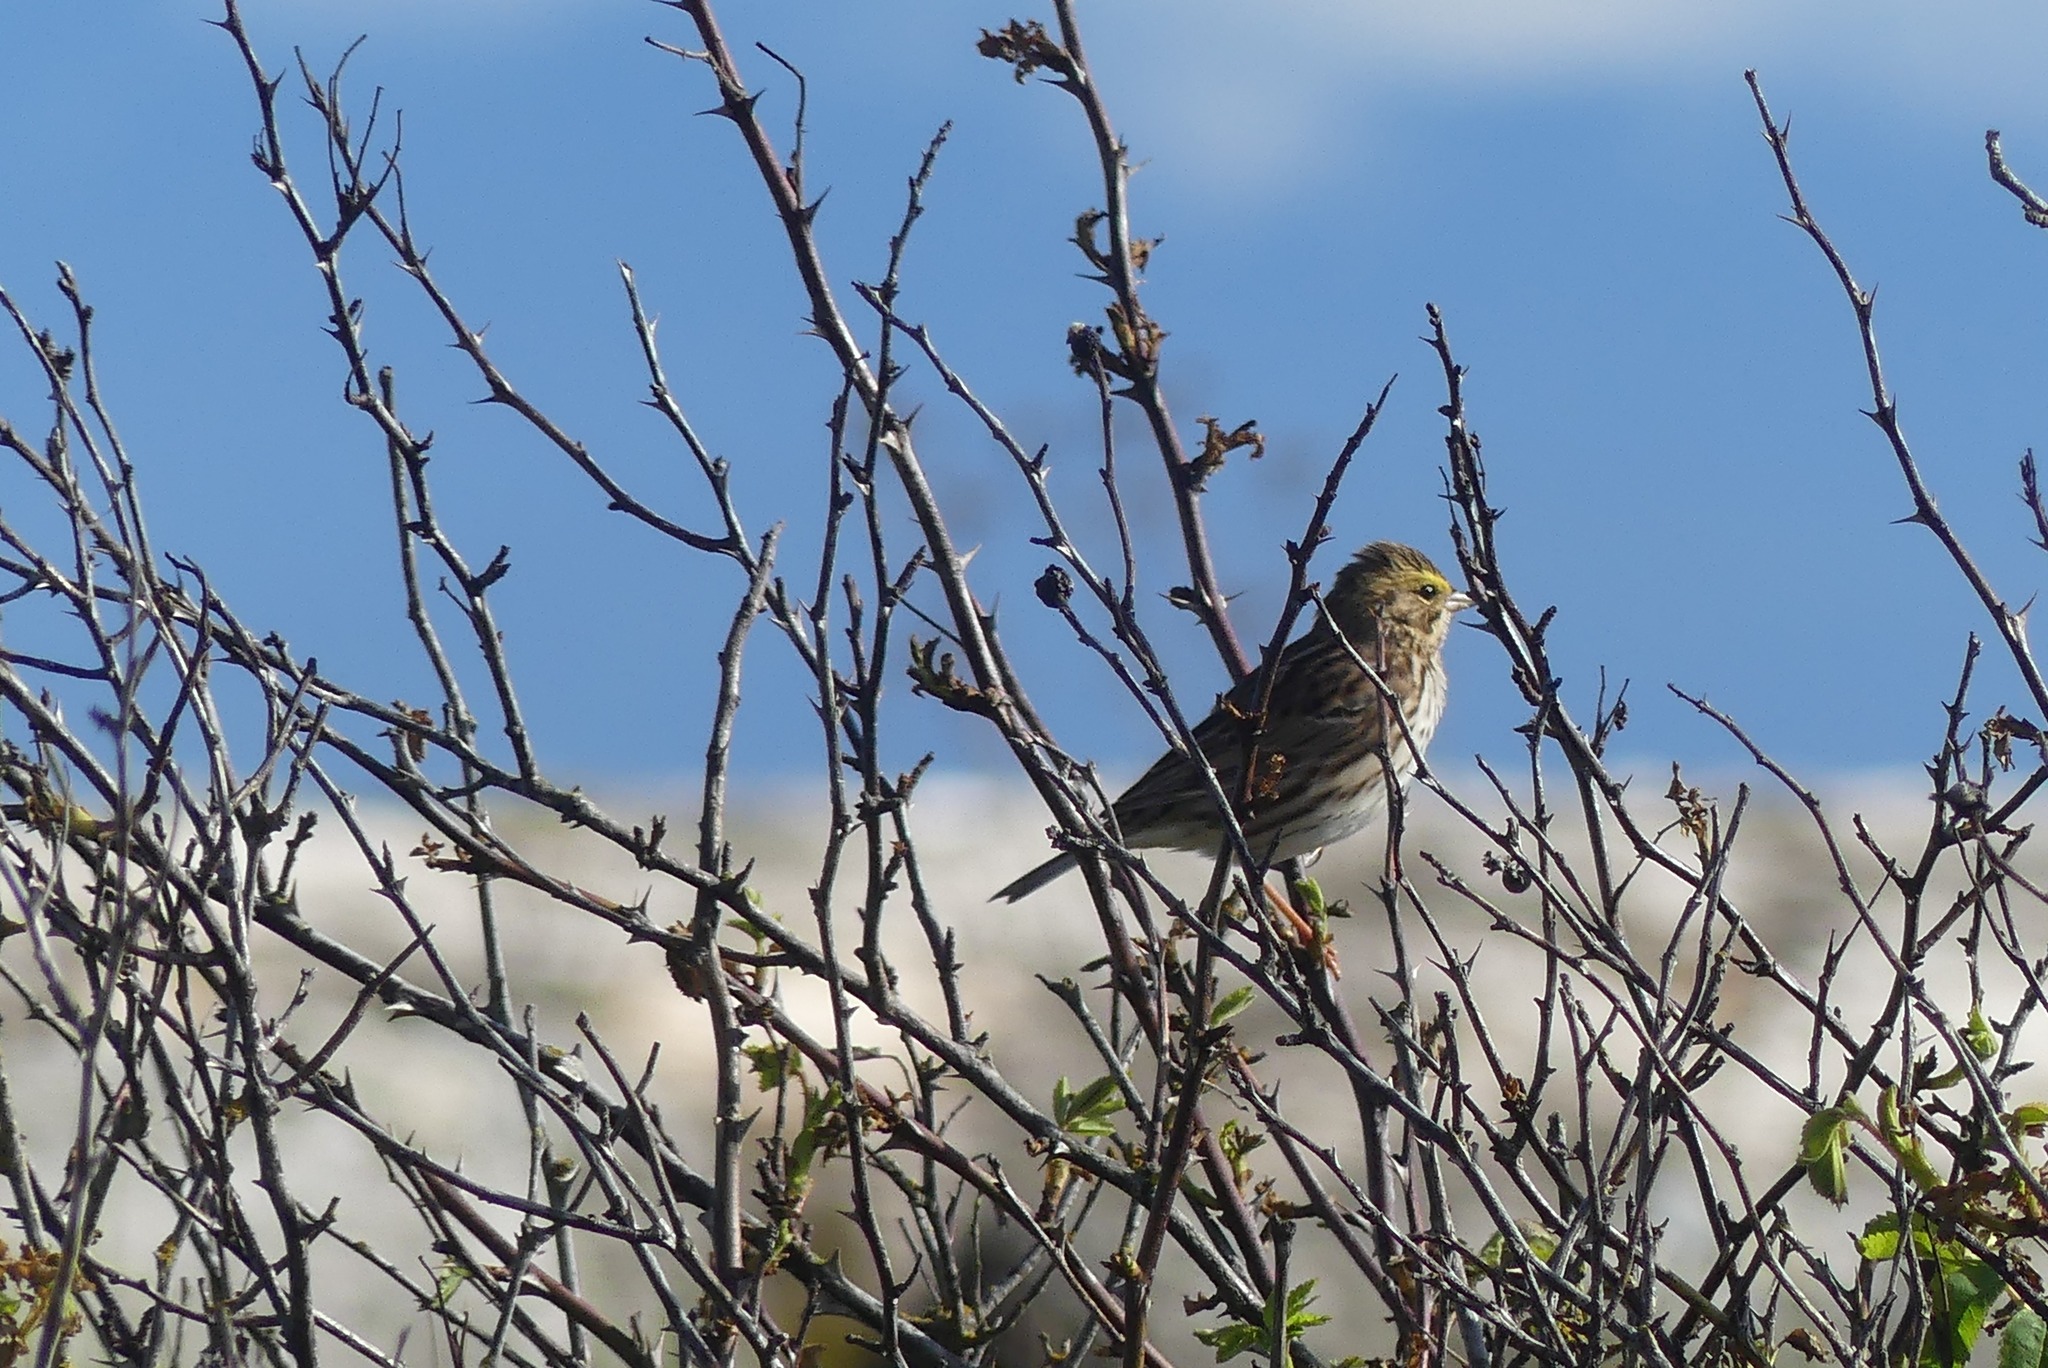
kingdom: Animalia
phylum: Chordata
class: Aves
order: Passeriformes
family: Passerellidae
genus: Passerculus
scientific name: Passerculus sandwichensis
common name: Savannah sparrow
